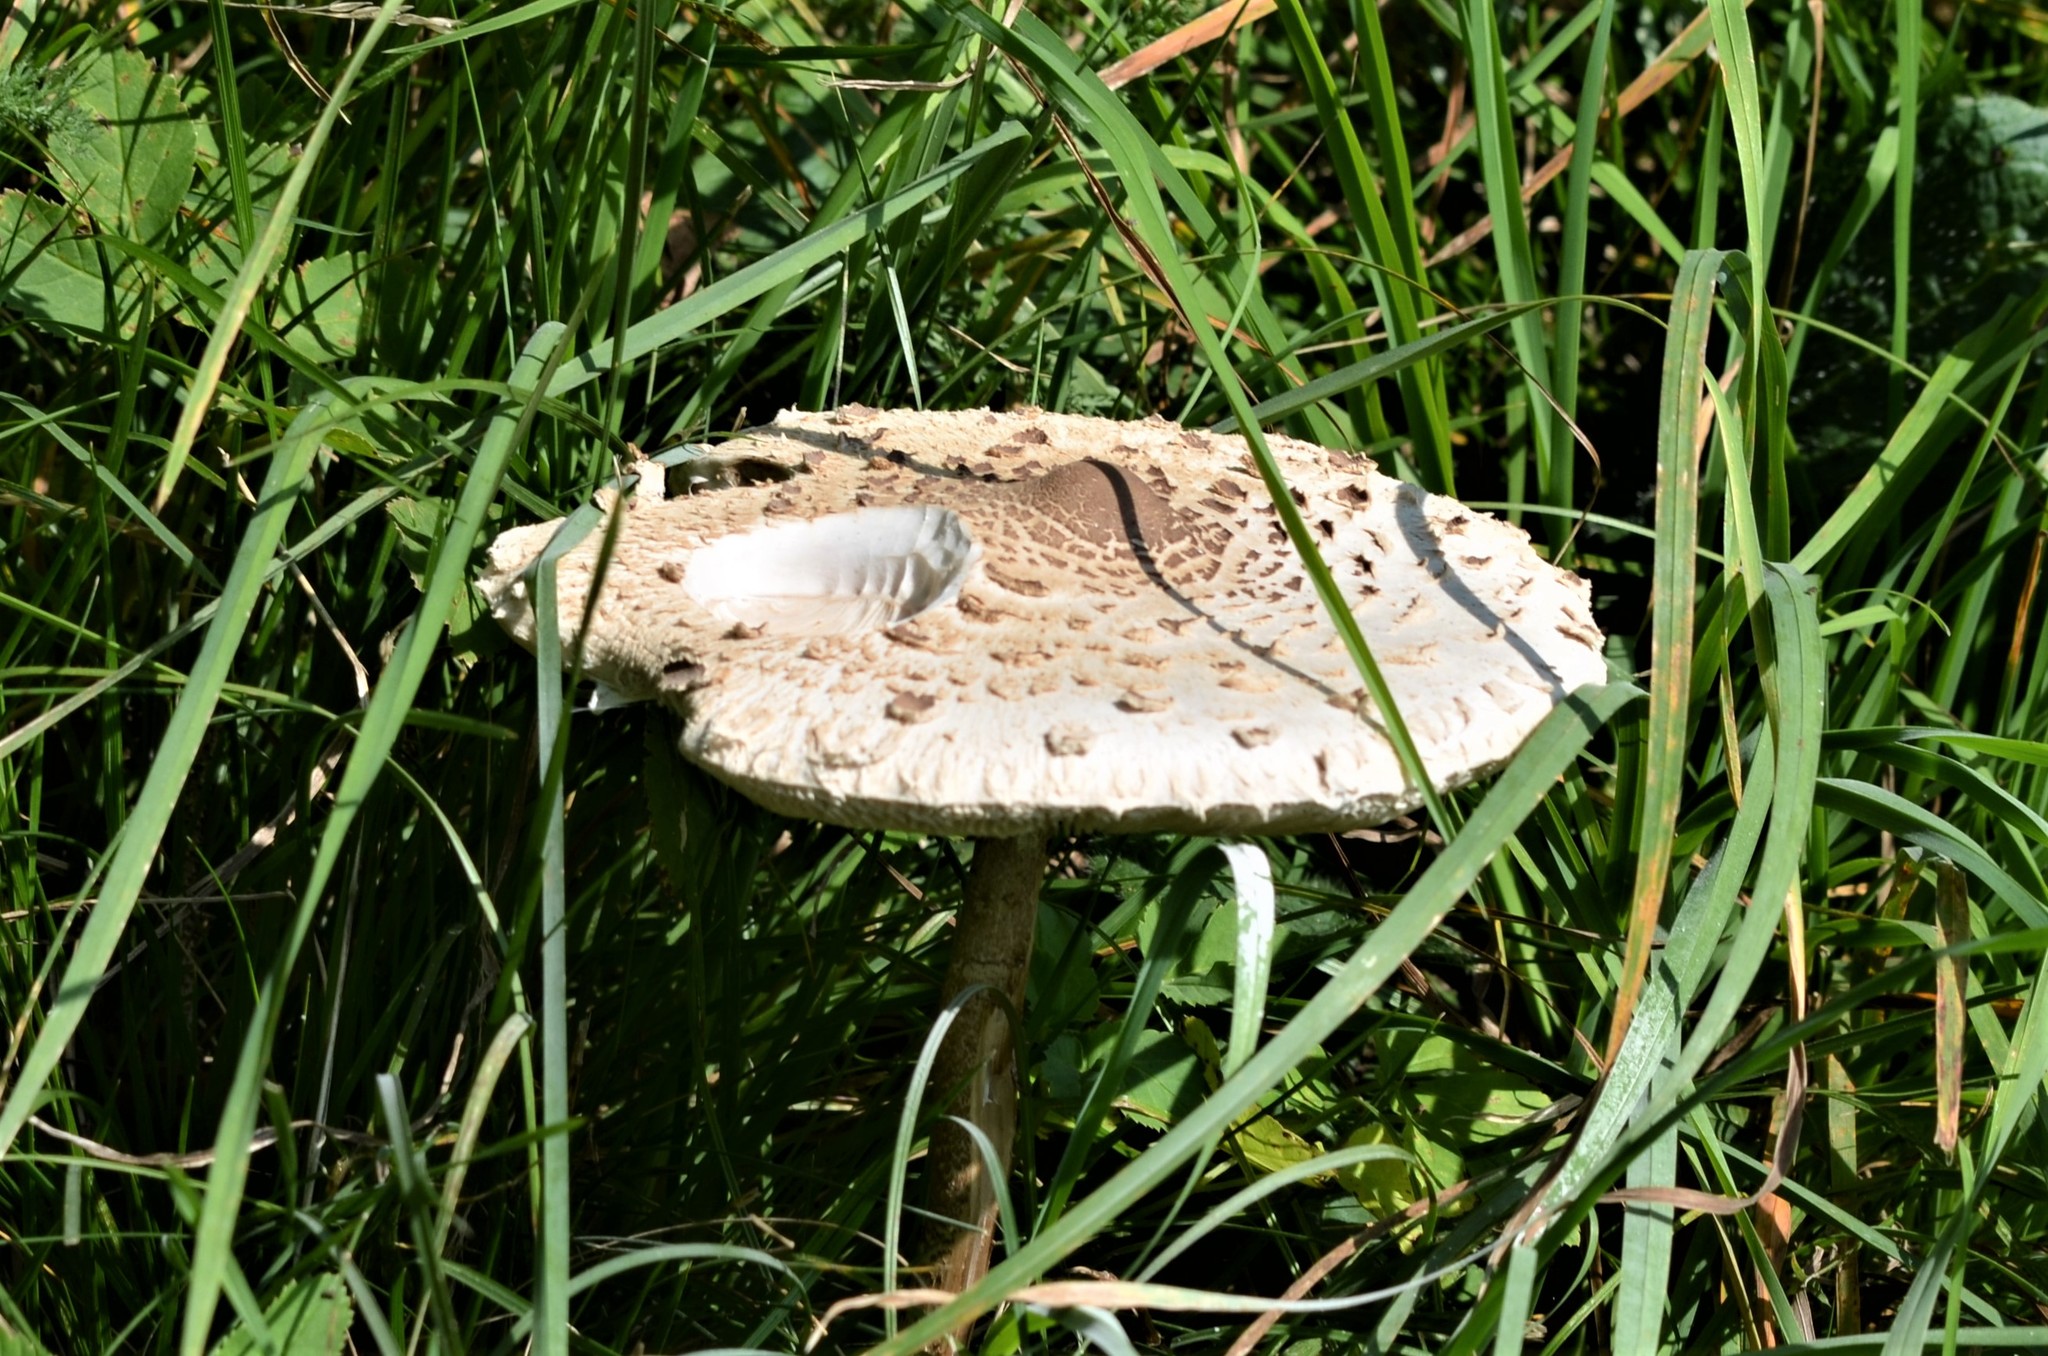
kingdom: Fungi
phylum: Basidiomycota
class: Agaricomycetes
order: Agaricales
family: Agaricaceae
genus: Macrolepiota
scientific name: Macrolepiota procera
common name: Parasol
